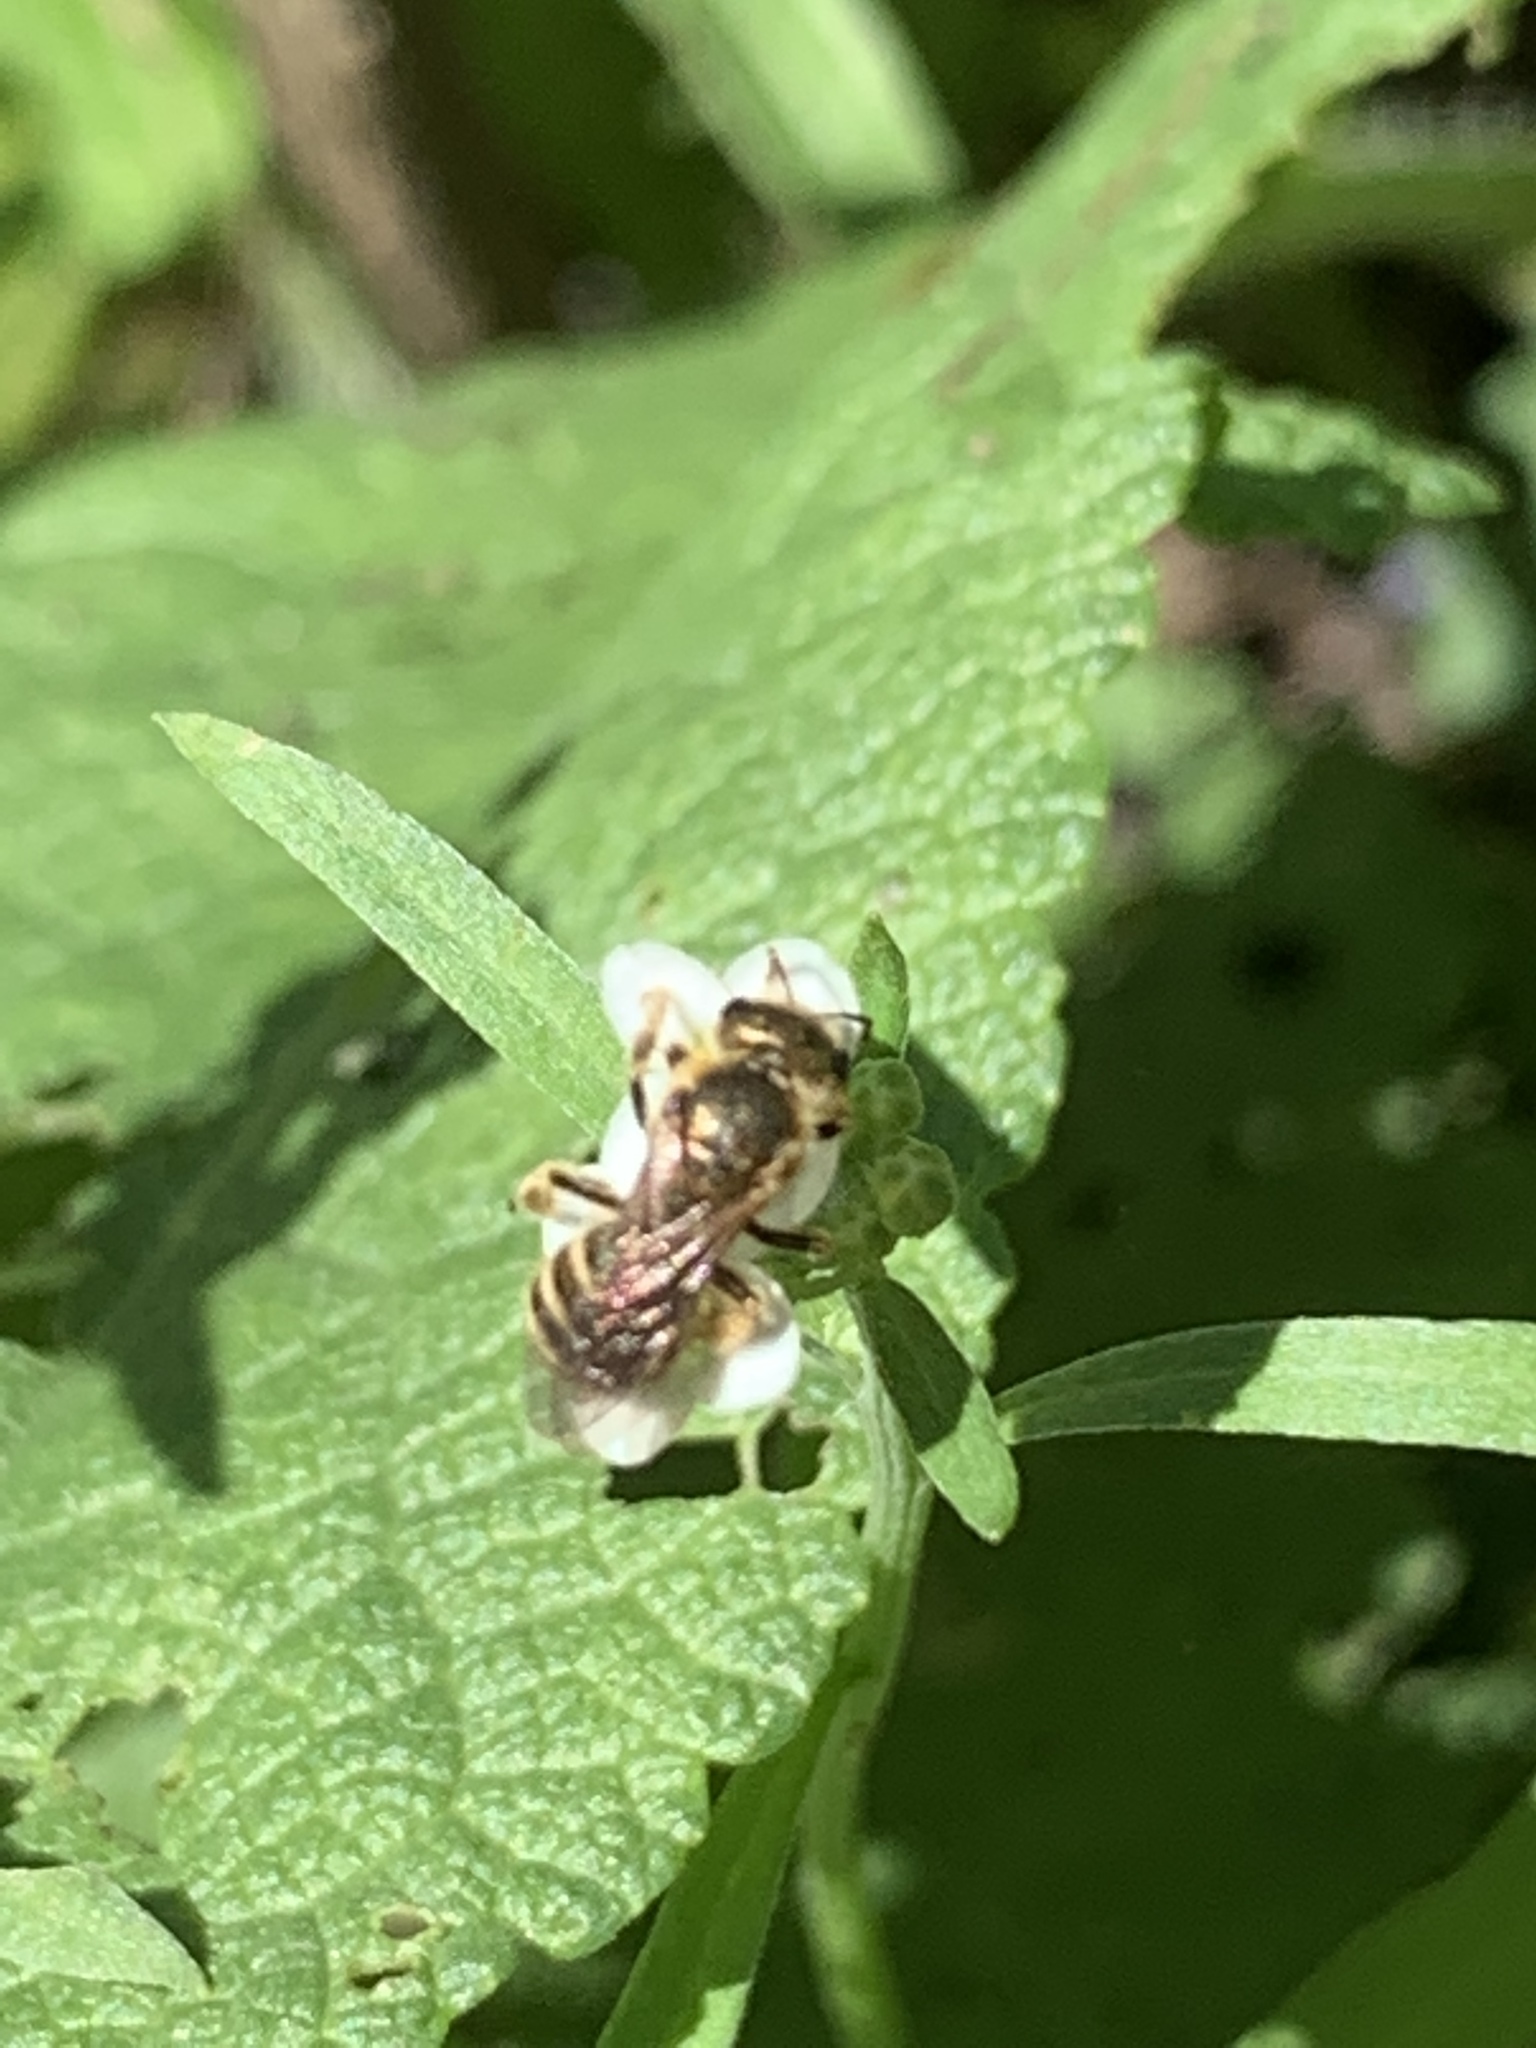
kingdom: Animalia
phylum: Arthropoda
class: Insecta
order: Hymenoptera
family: Halictidae
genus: Halictus
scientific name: Halictus confusus
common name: Southern bronze furrow bee
